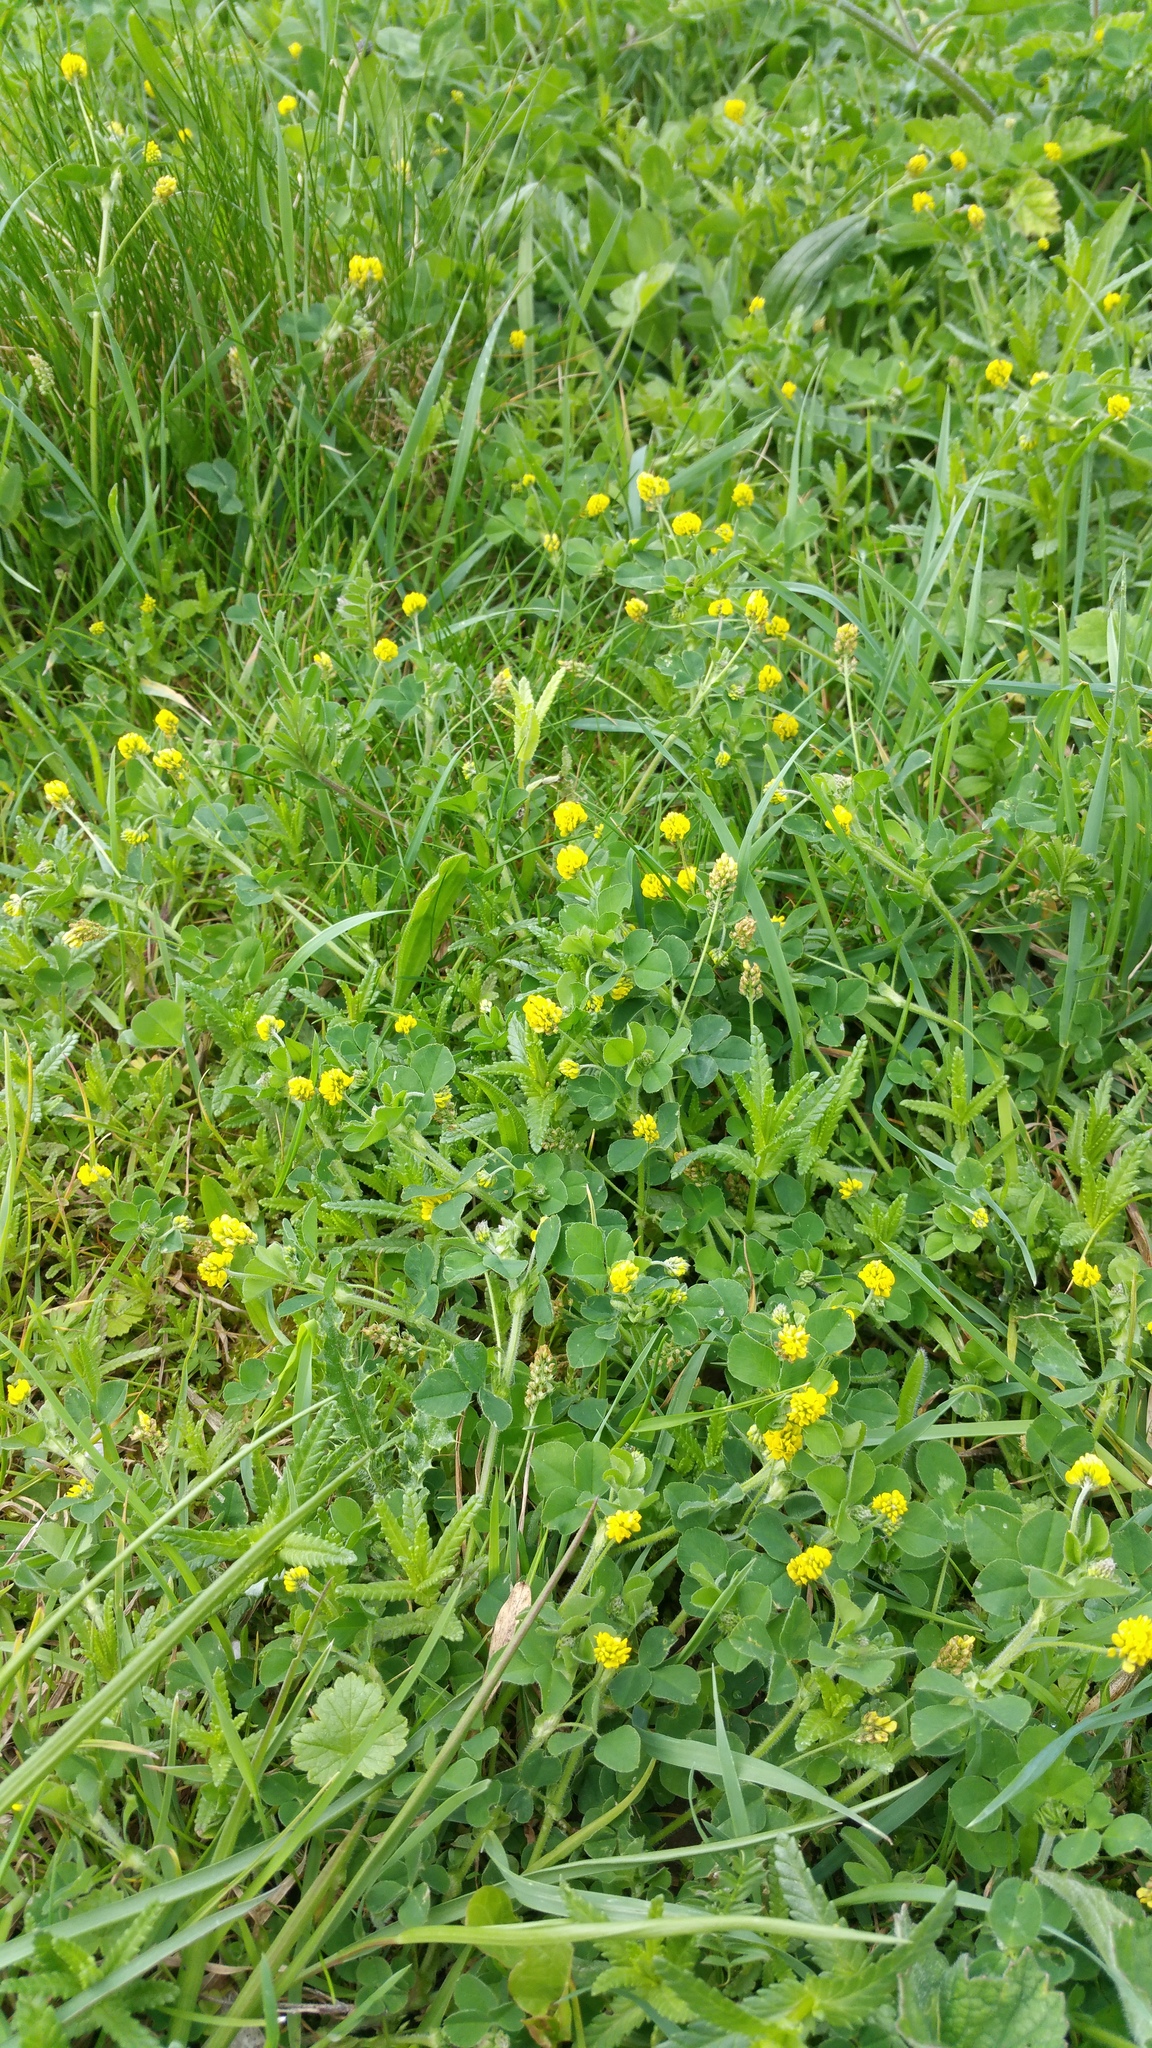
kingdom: Plantae
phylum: Tracheophyta
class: Magnoliopsida
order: Fabales
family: Fabaceae
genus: Medicago
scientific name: Medicago lupulina
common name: Black medick
